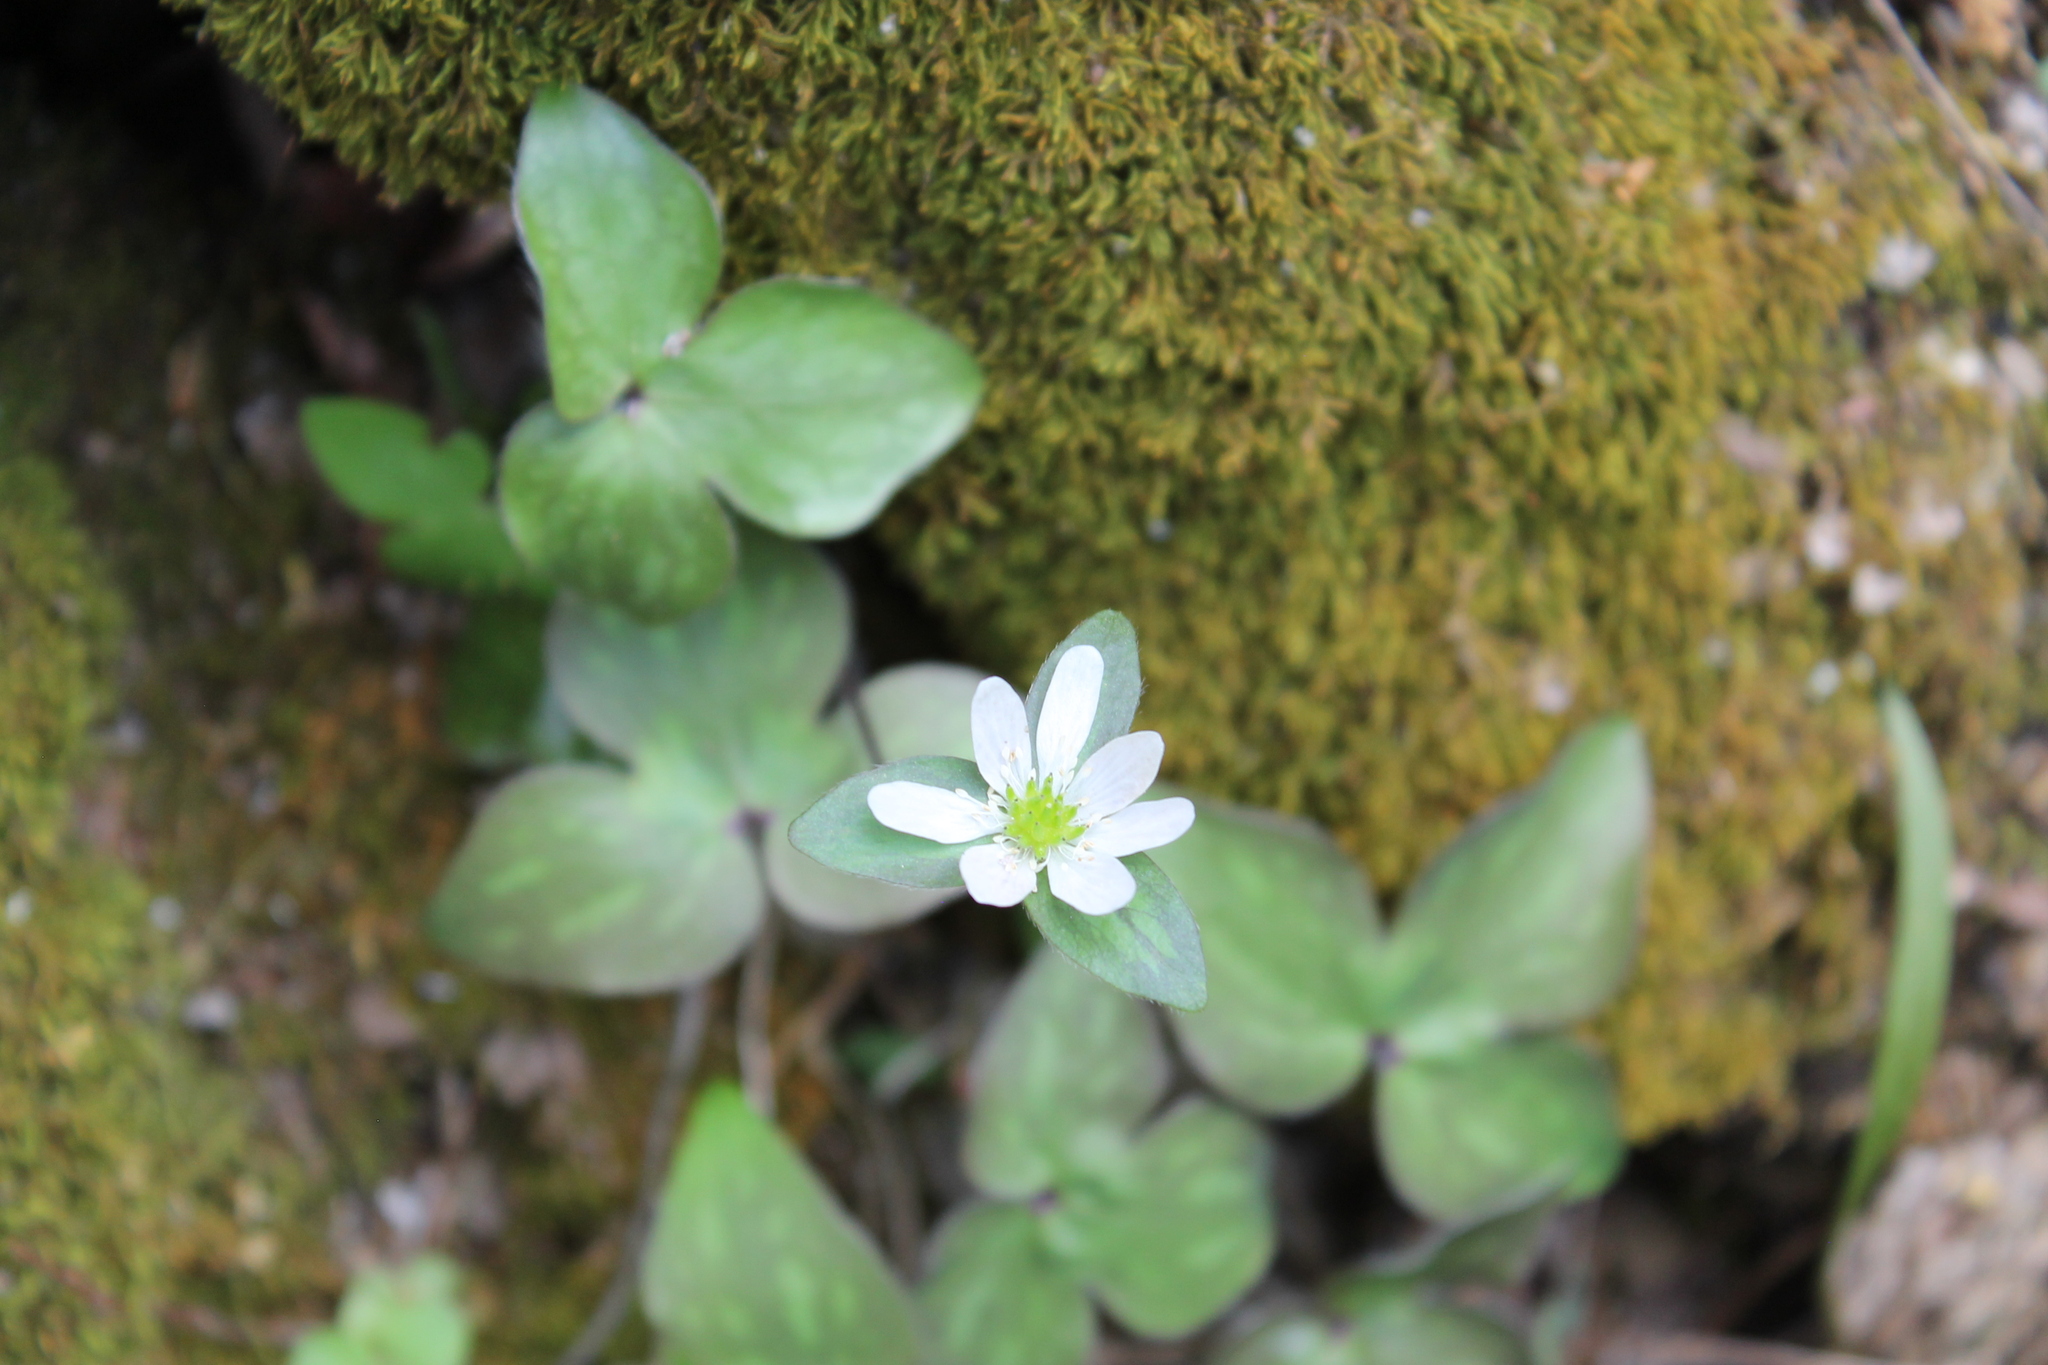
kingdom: Plantae
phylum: Tracheophyta
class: Magnoliopsida
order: Ranunculales
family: Ranunculaceae
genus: Hepatica
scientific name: Hepatica acutiloba
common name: Sharp-lobed hepatica
